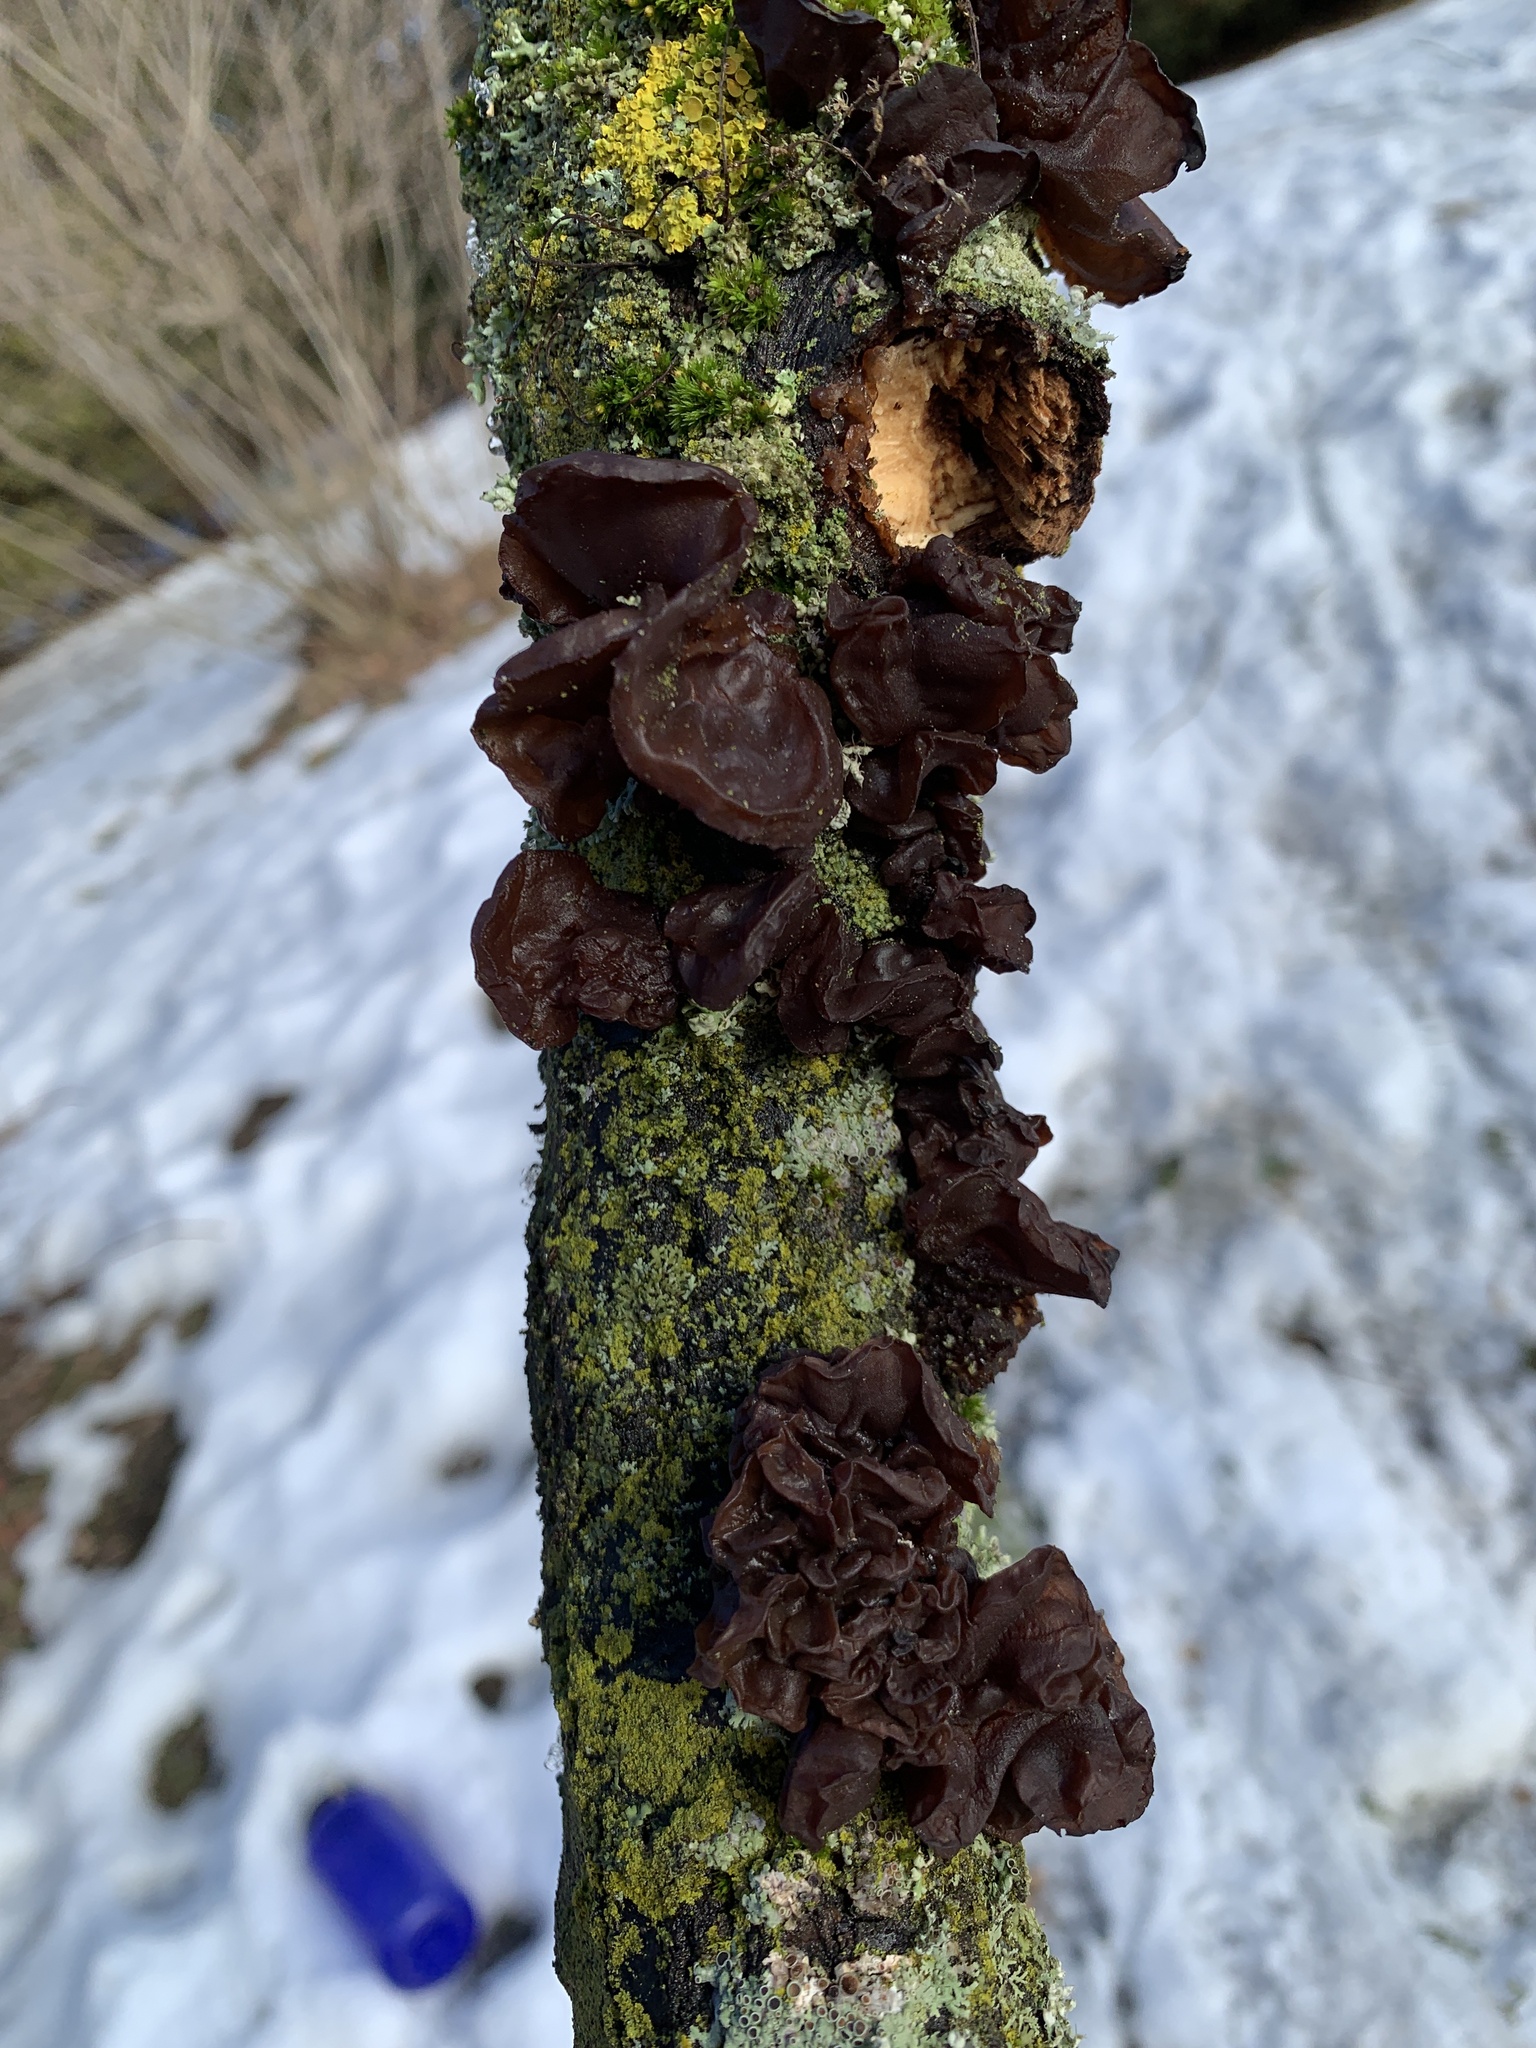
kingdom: Fungi
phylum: Basidiomycota
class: Agaricomycetes
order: Auriculariales
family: Auriculariaceae
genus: Exidia
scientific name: Exidia
